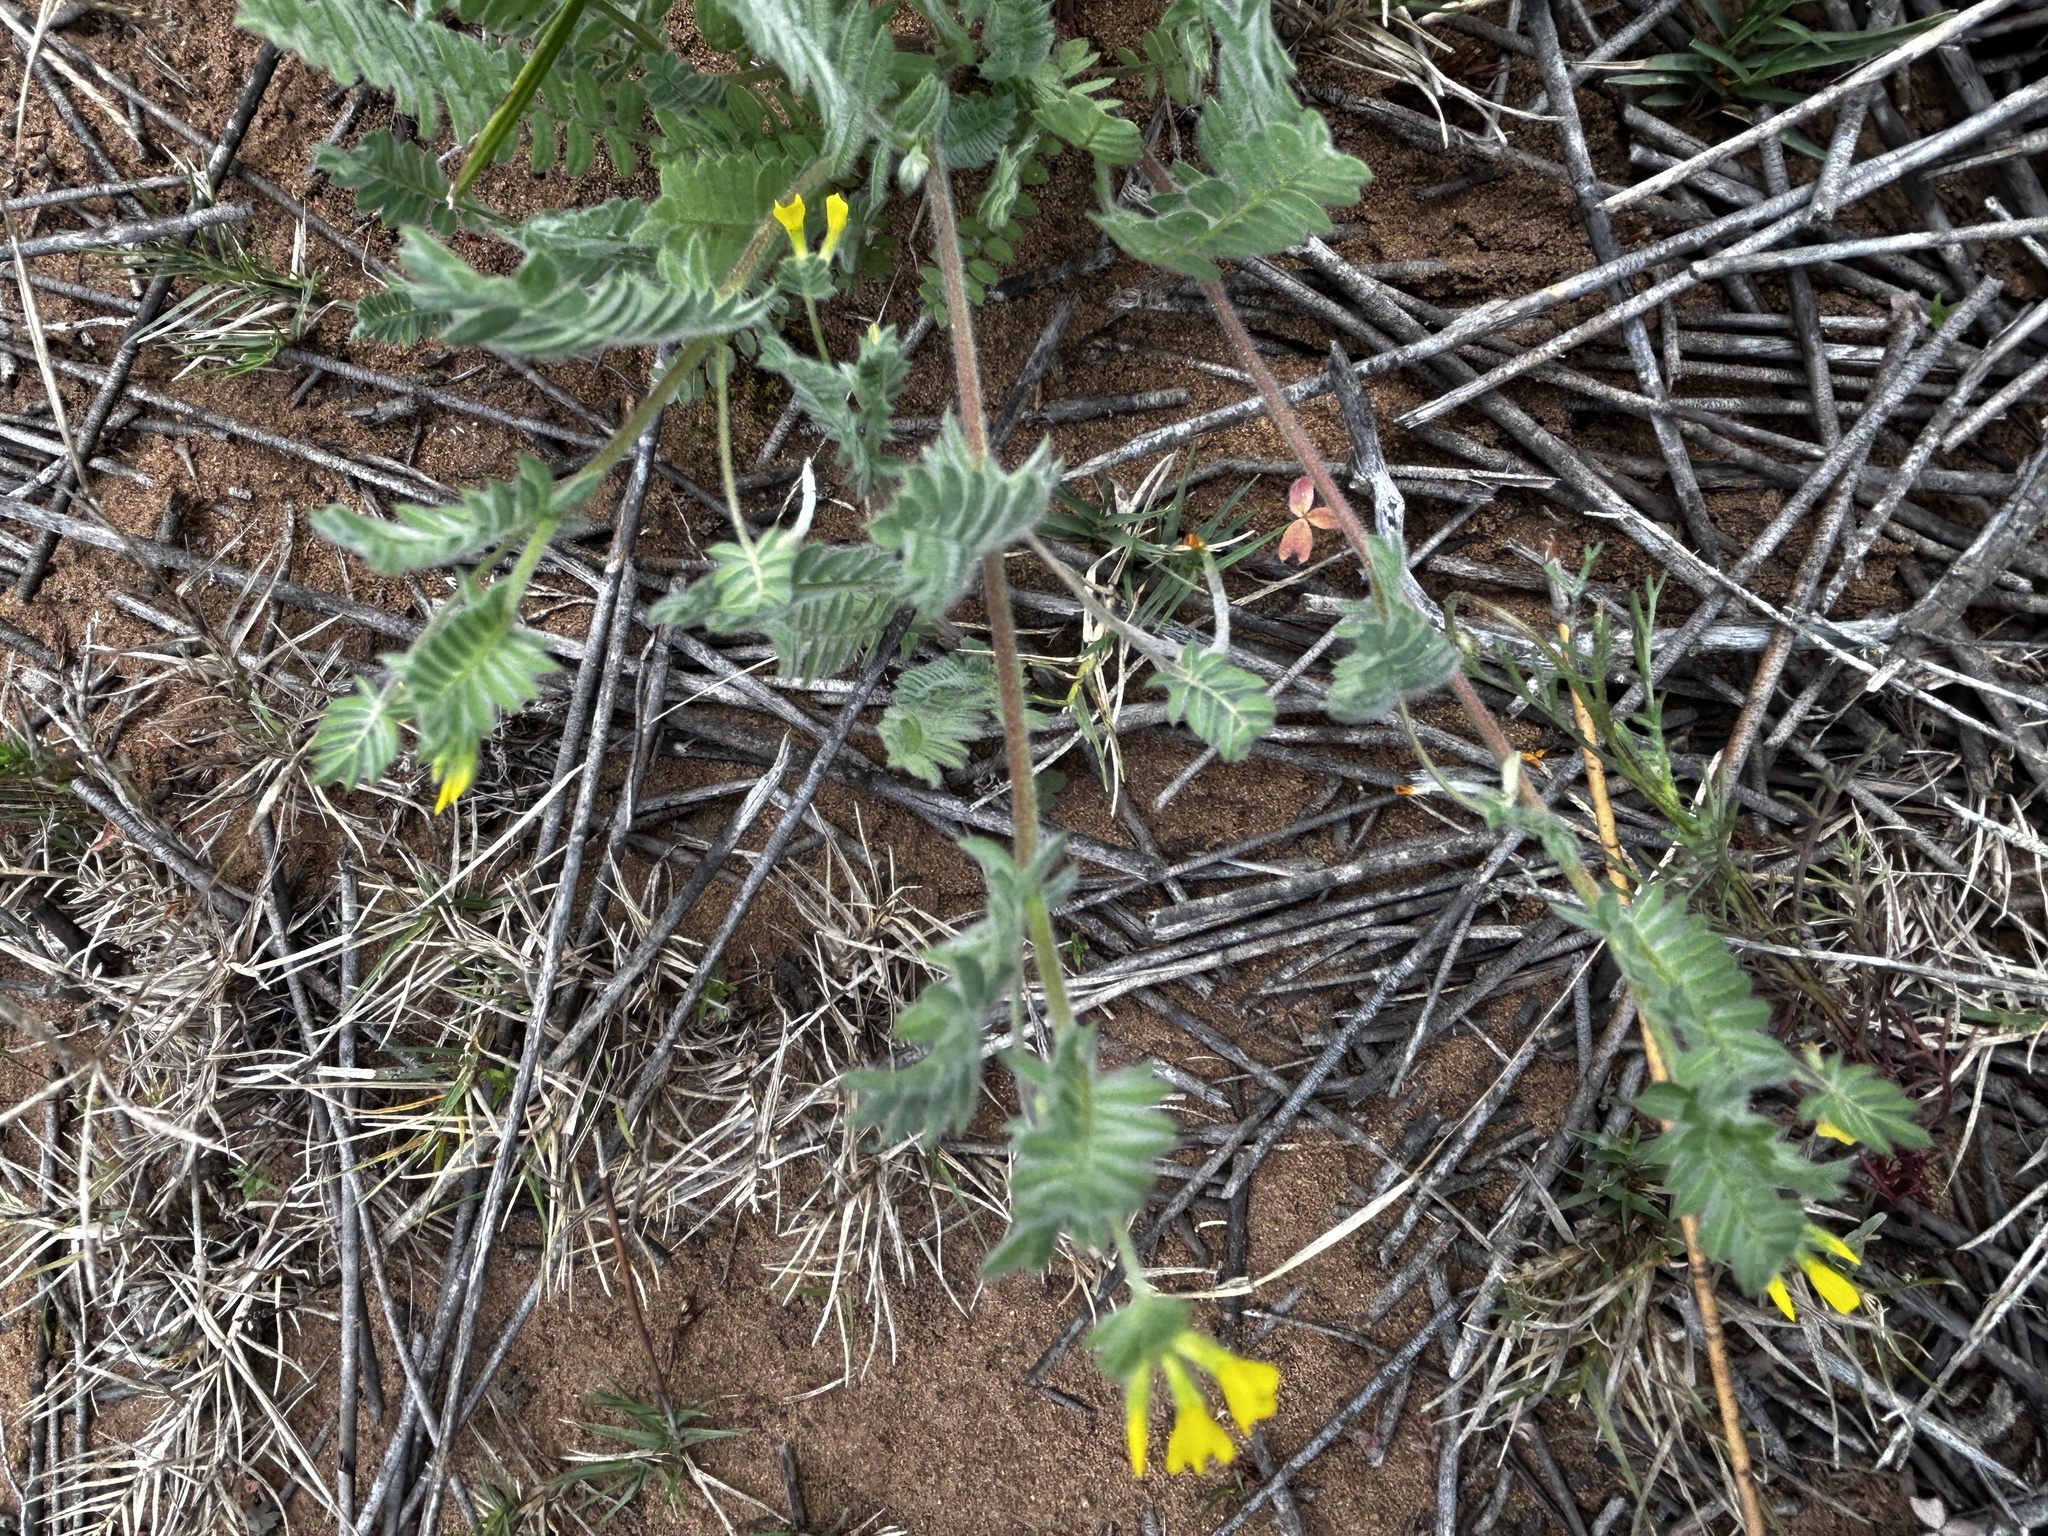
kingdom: Plantae
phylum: Tracheophyta
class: Magnoliopsida
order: Fabales
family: Fabaceae
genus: Ornithopus
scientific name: Ornithopus compressus
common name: Yellow serradella
